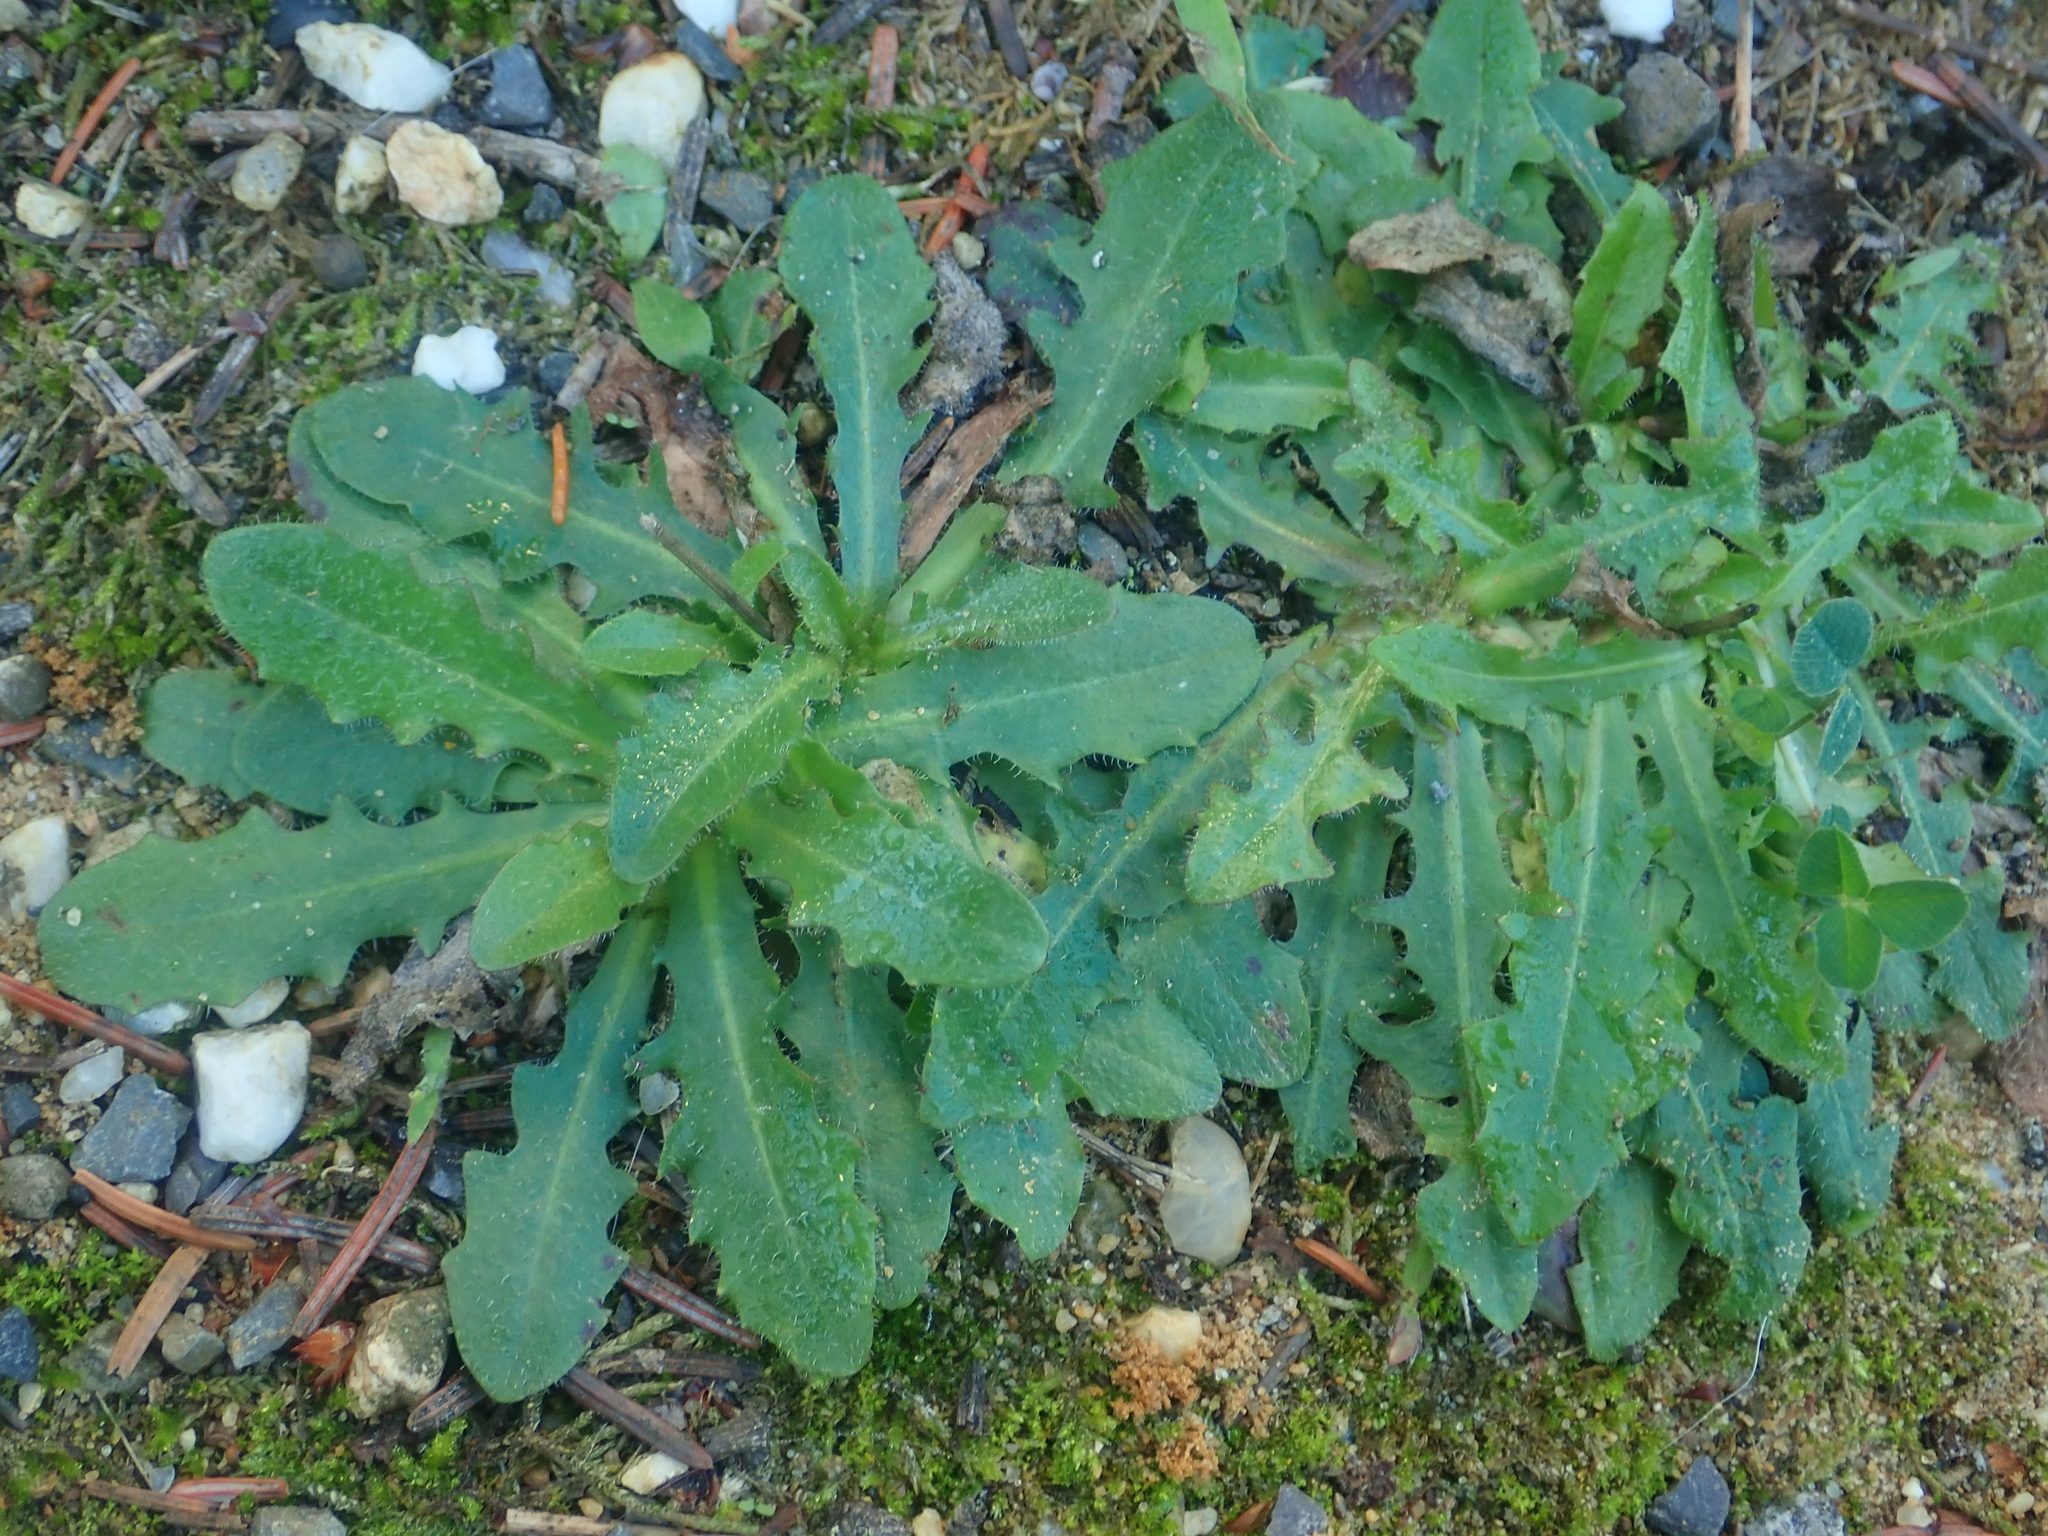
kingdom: Plantae
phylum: Tracheophyta
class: Magnoliopsida
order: Asterales
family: Asteraceae
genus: Hypochaeris
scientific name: Hypochaeris radicata
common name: Flatweed
